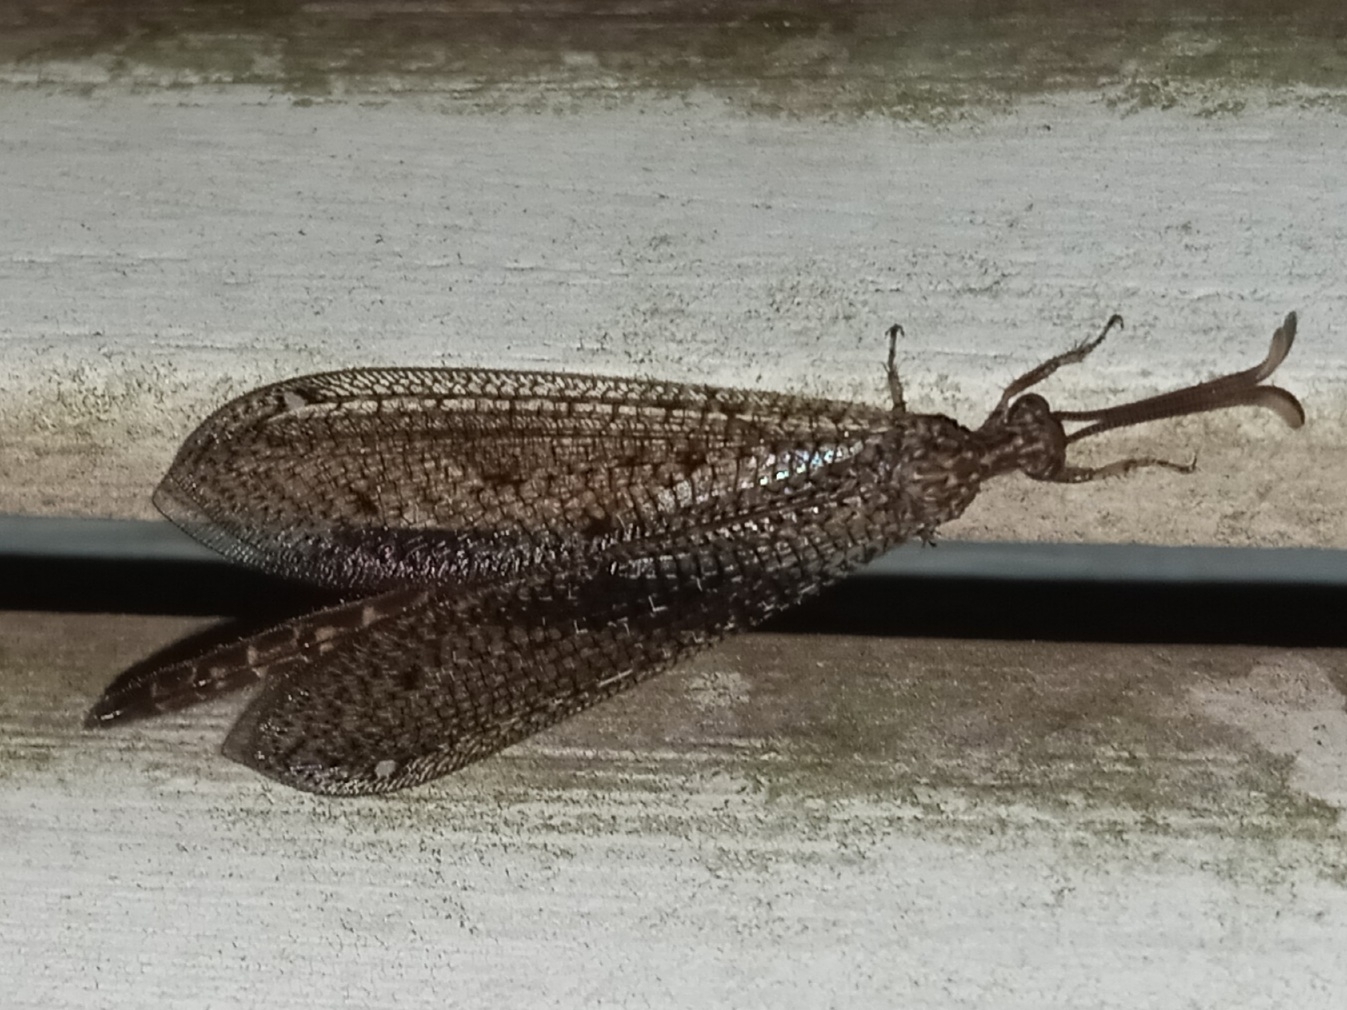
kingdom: Animalia
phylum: Arthropoda
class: Insecta
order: Neuroptera
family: Myrmeleontidae
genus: Brachynemurus
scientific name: Brachynemurus longicaudus
